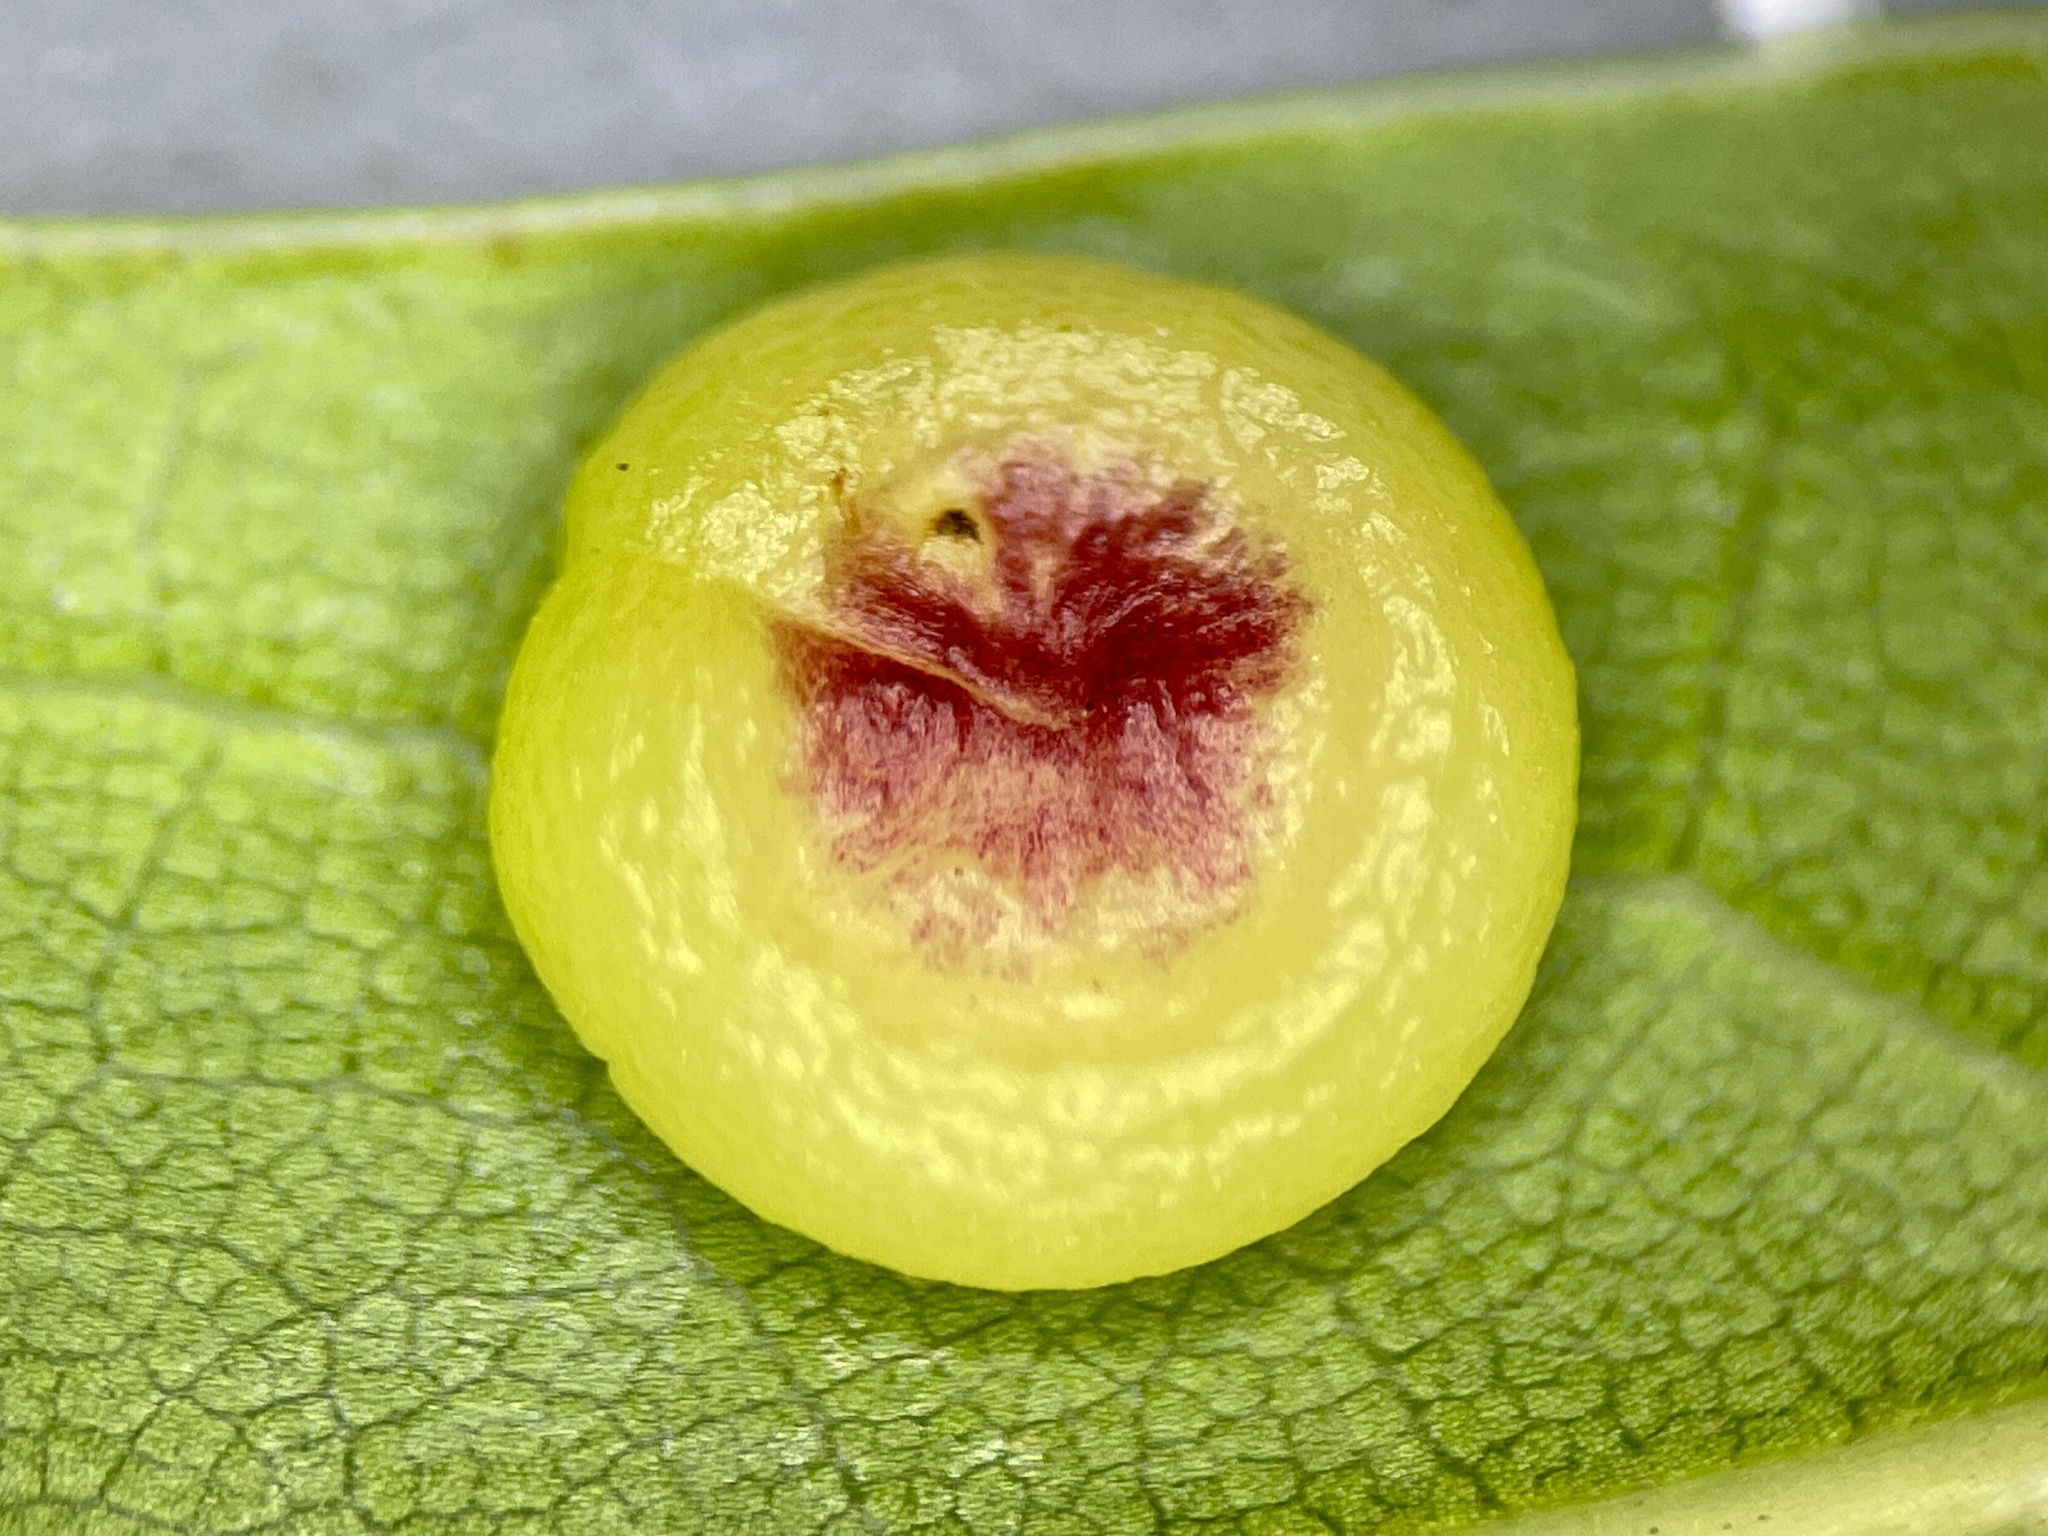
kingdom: Animalia
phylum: Arthropoda
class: Insecta
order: Hymenoptera
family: Cynipidae
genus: Dryocosmus
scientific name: Dryocosmus
